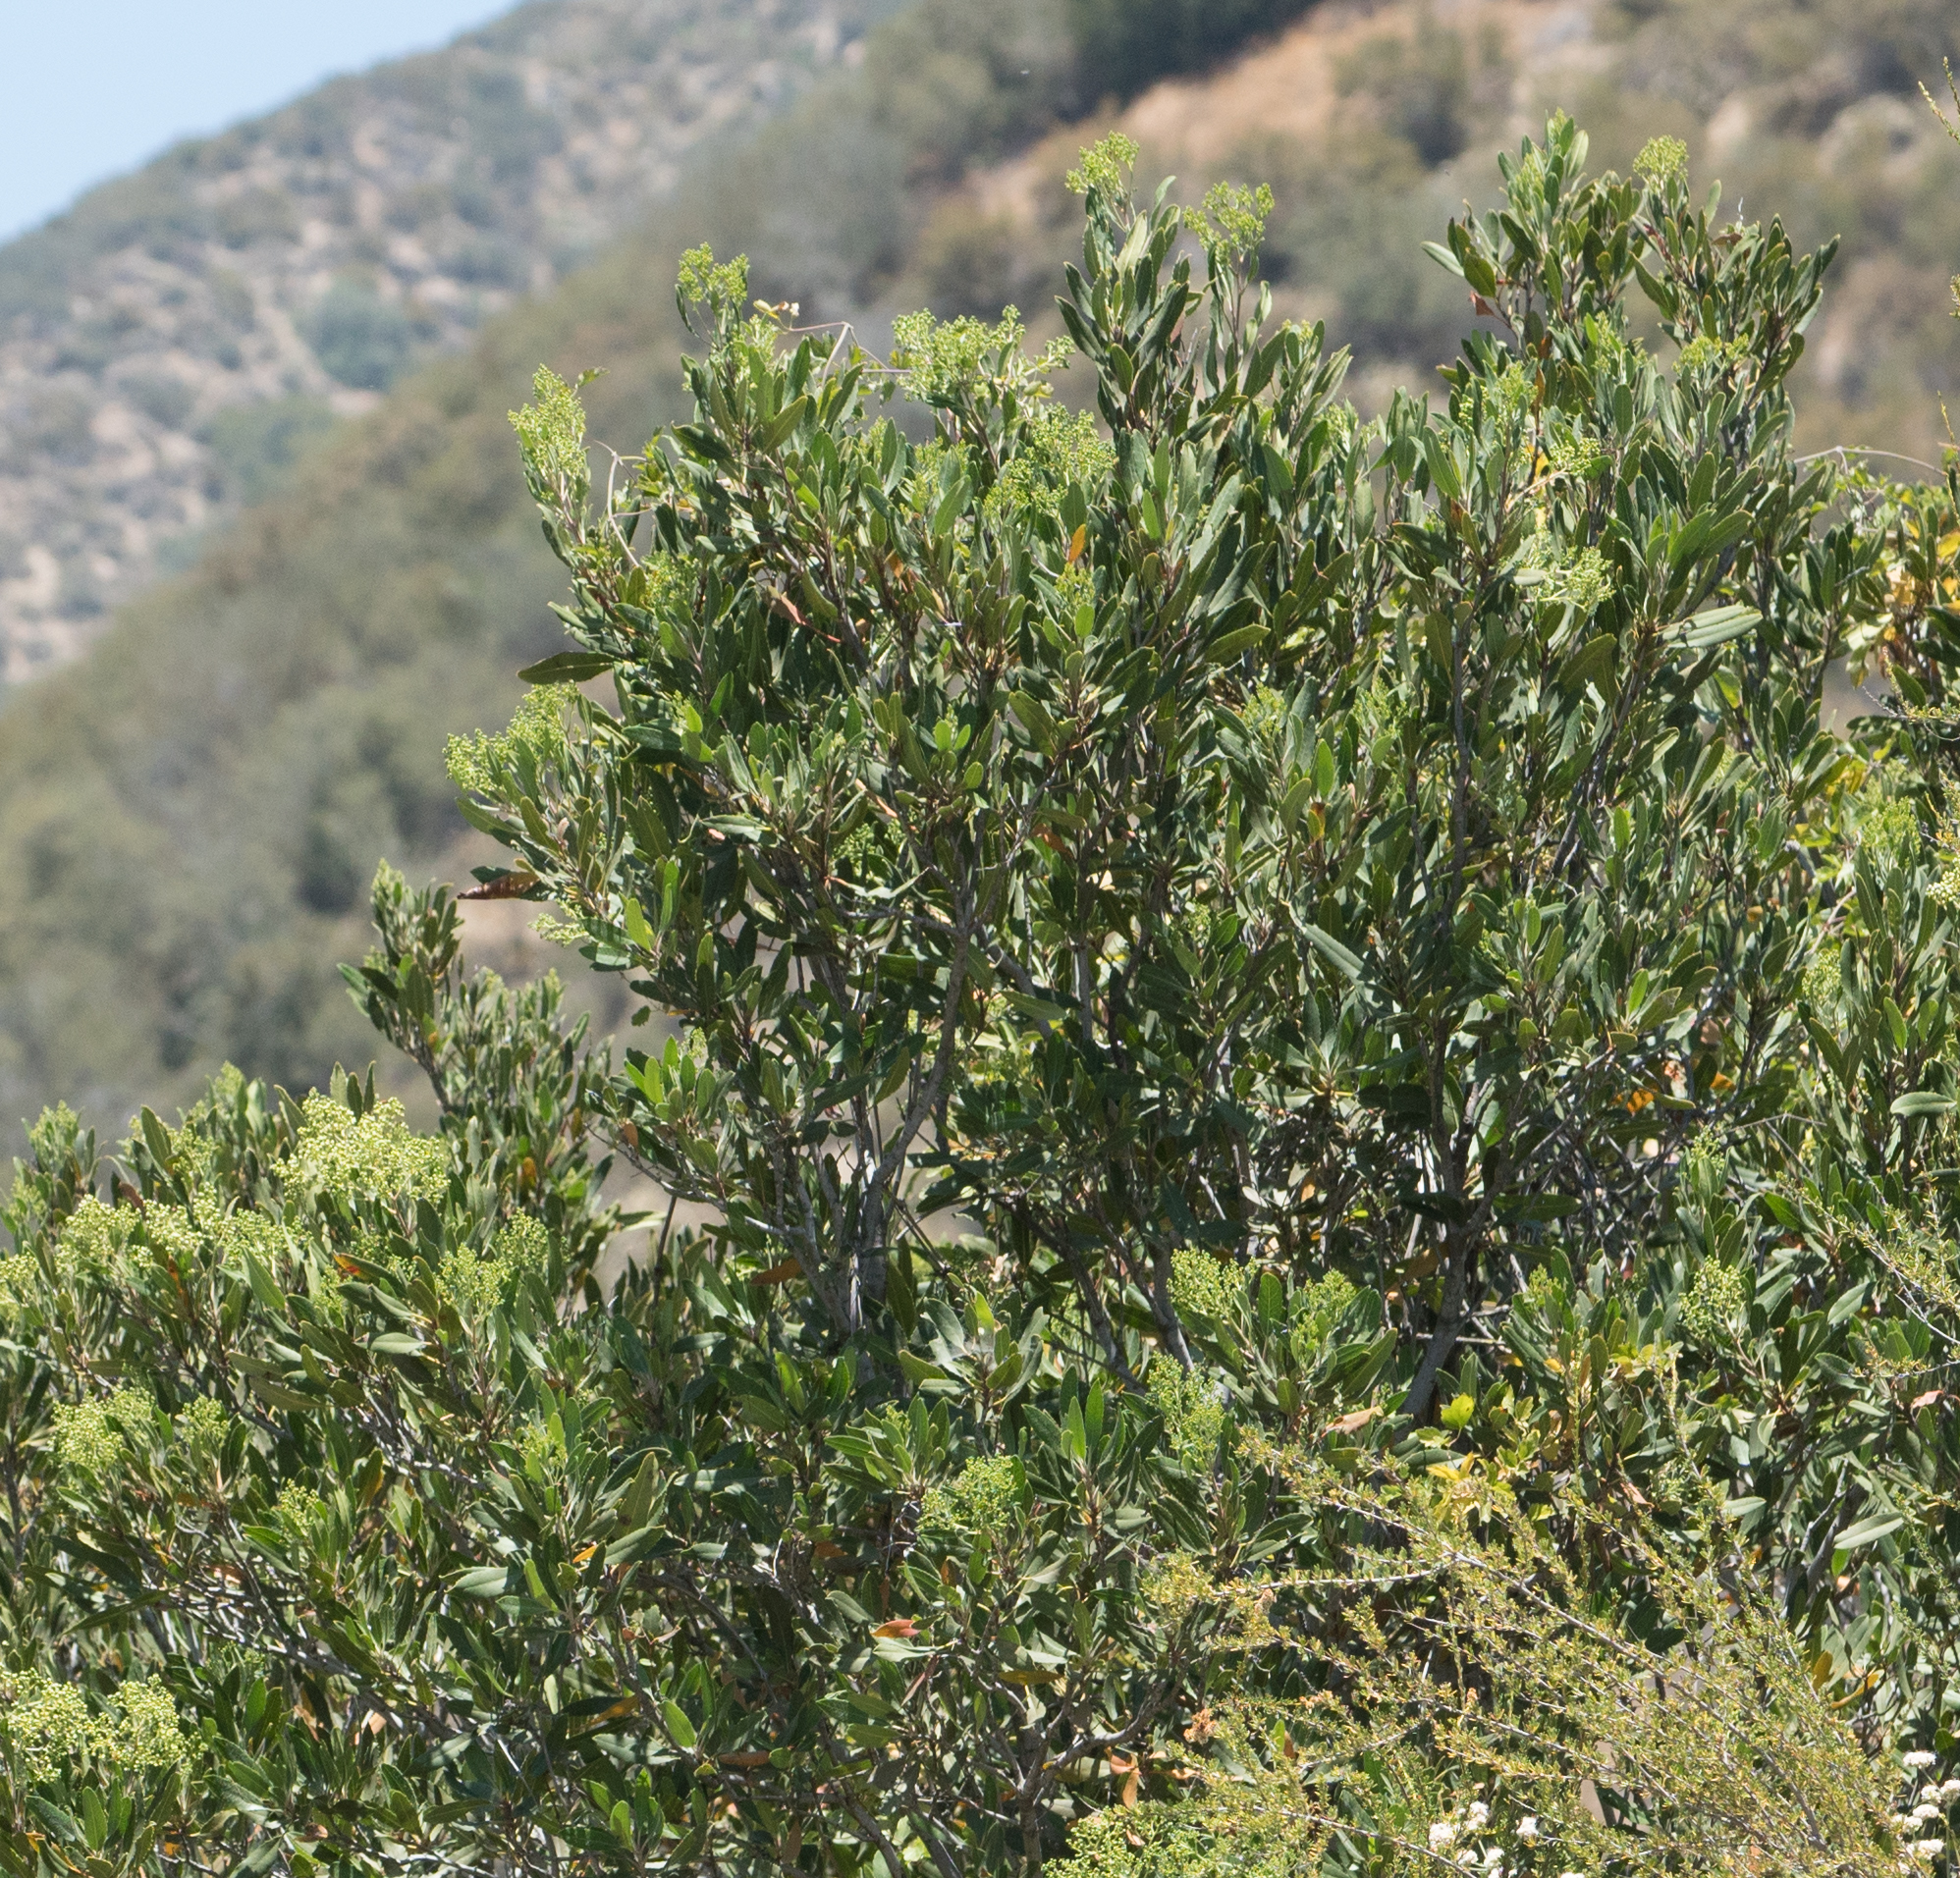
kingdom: Plantae
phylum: Tracheophyta
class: Magnoliopsida
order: Rosales
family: Rosaceae
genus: Heteromeles
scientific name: Heteromeles arbutifolia
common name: California-holly
